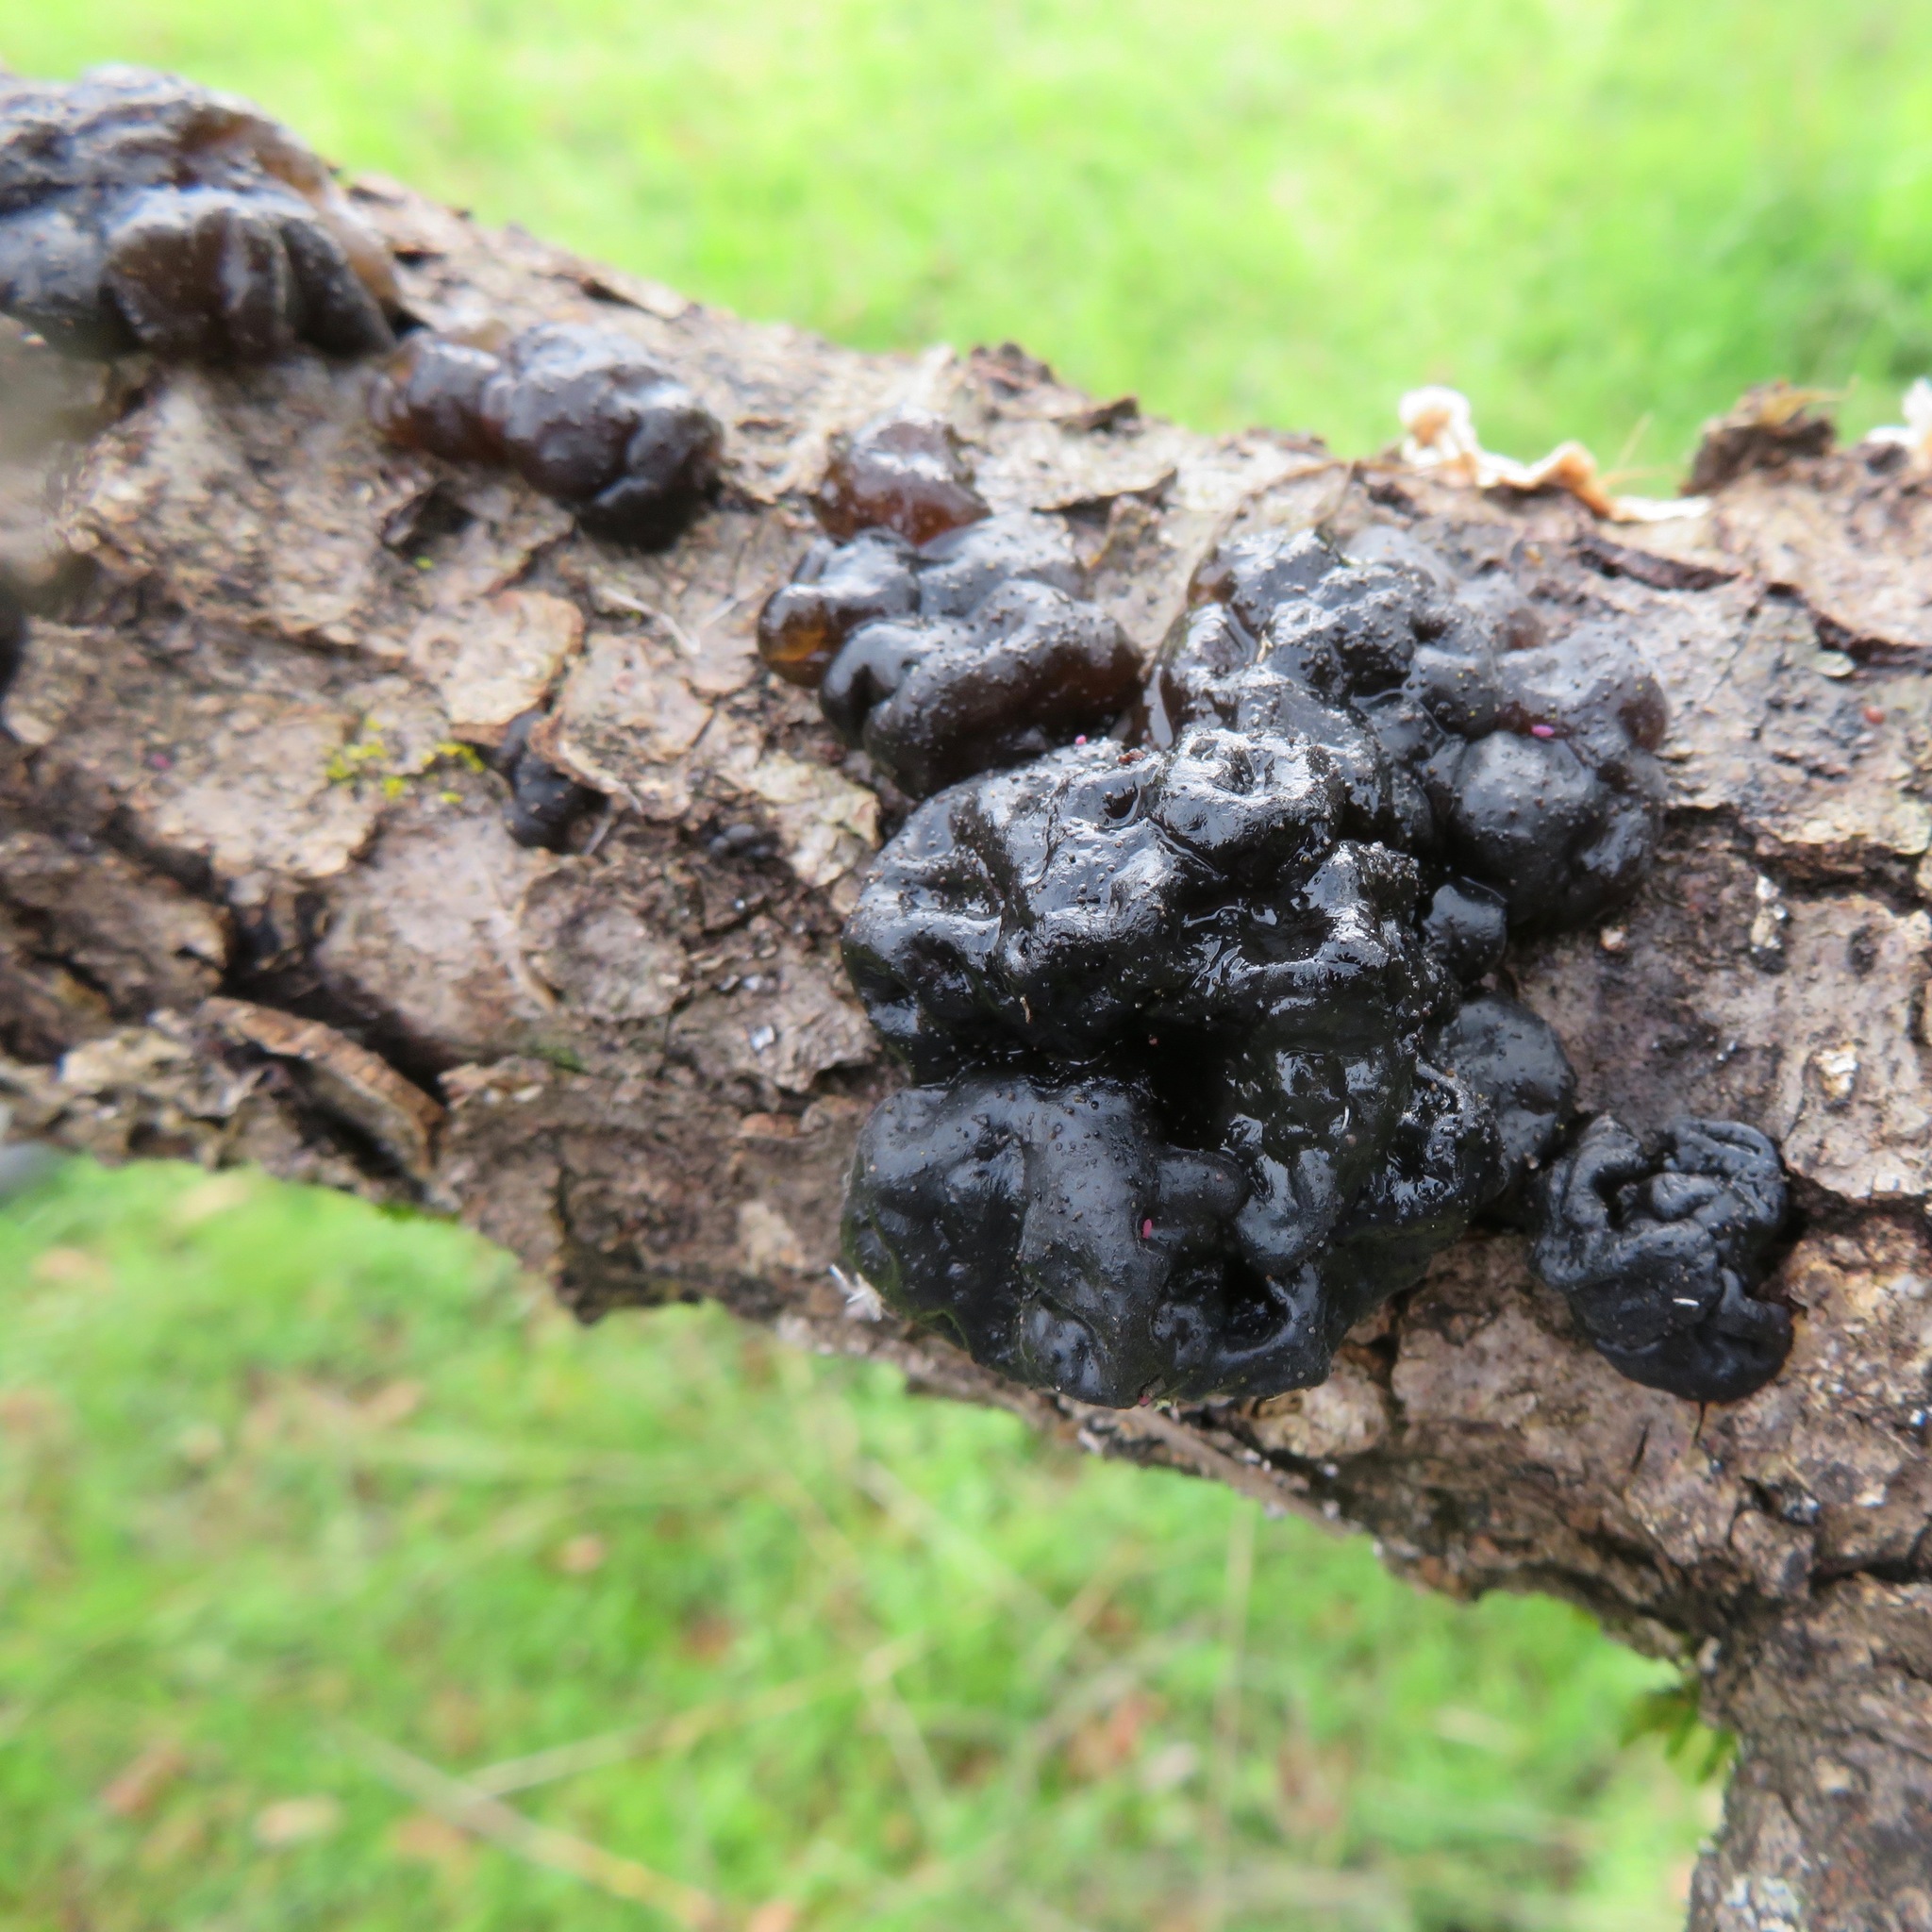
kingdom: Fungi
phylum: Basidiomycota
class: Agaricomycetes
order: Auriculariales
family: Auriculariaceae
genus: Exidia
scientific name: Exidia glandulosa
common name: Witches' butter
